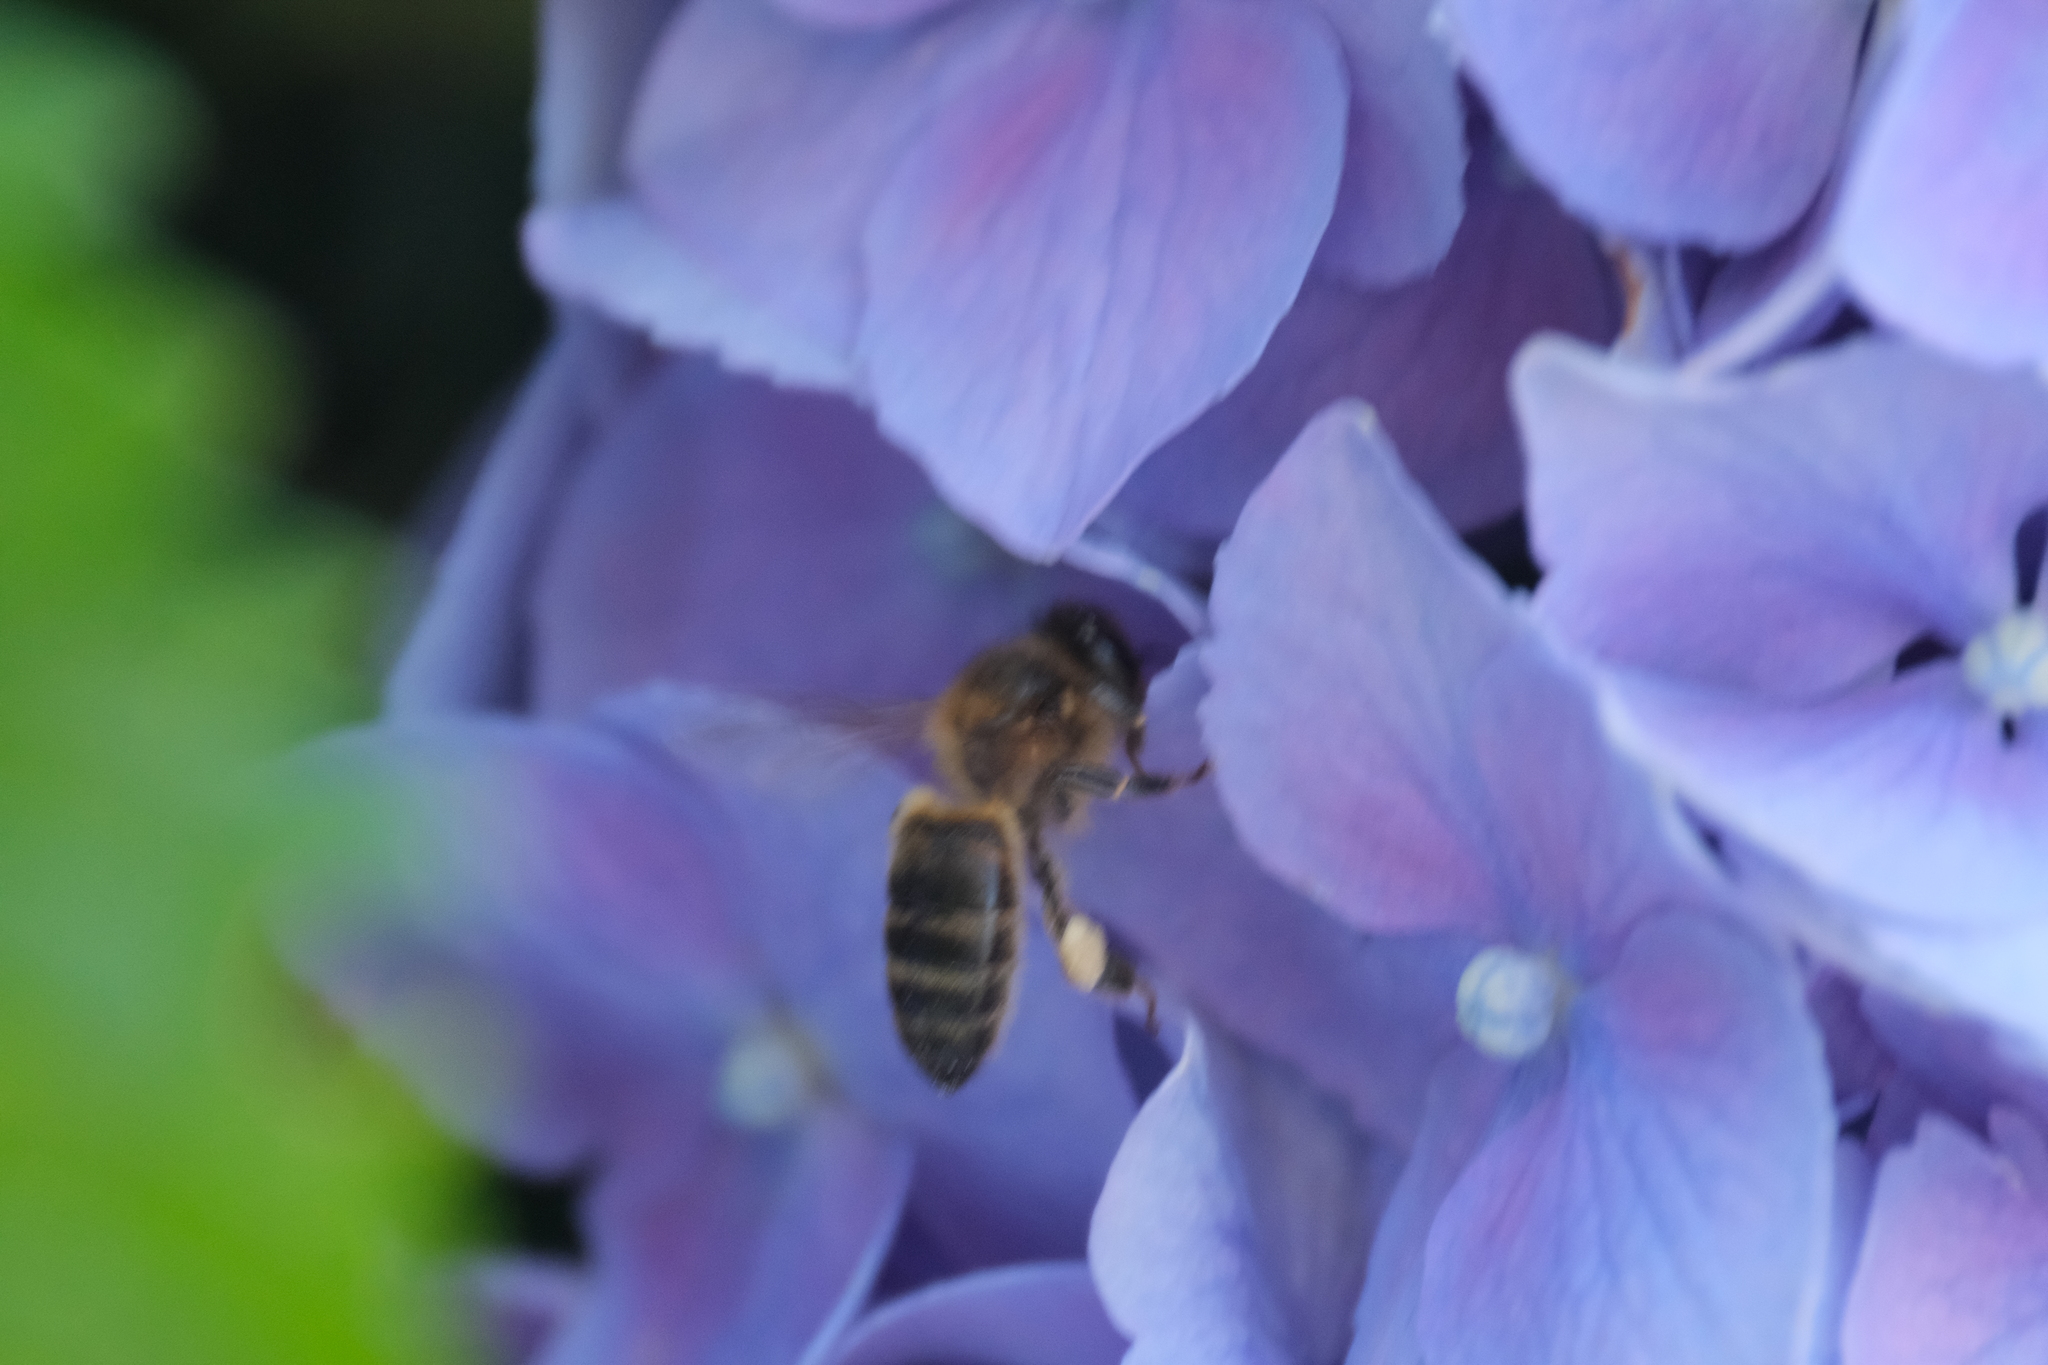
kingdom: Animalia
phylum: Arthropoda
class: Insecta
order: Hymenoptera
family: Apidae
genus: Apis
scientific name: Apis mellifera
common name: Honey bee
